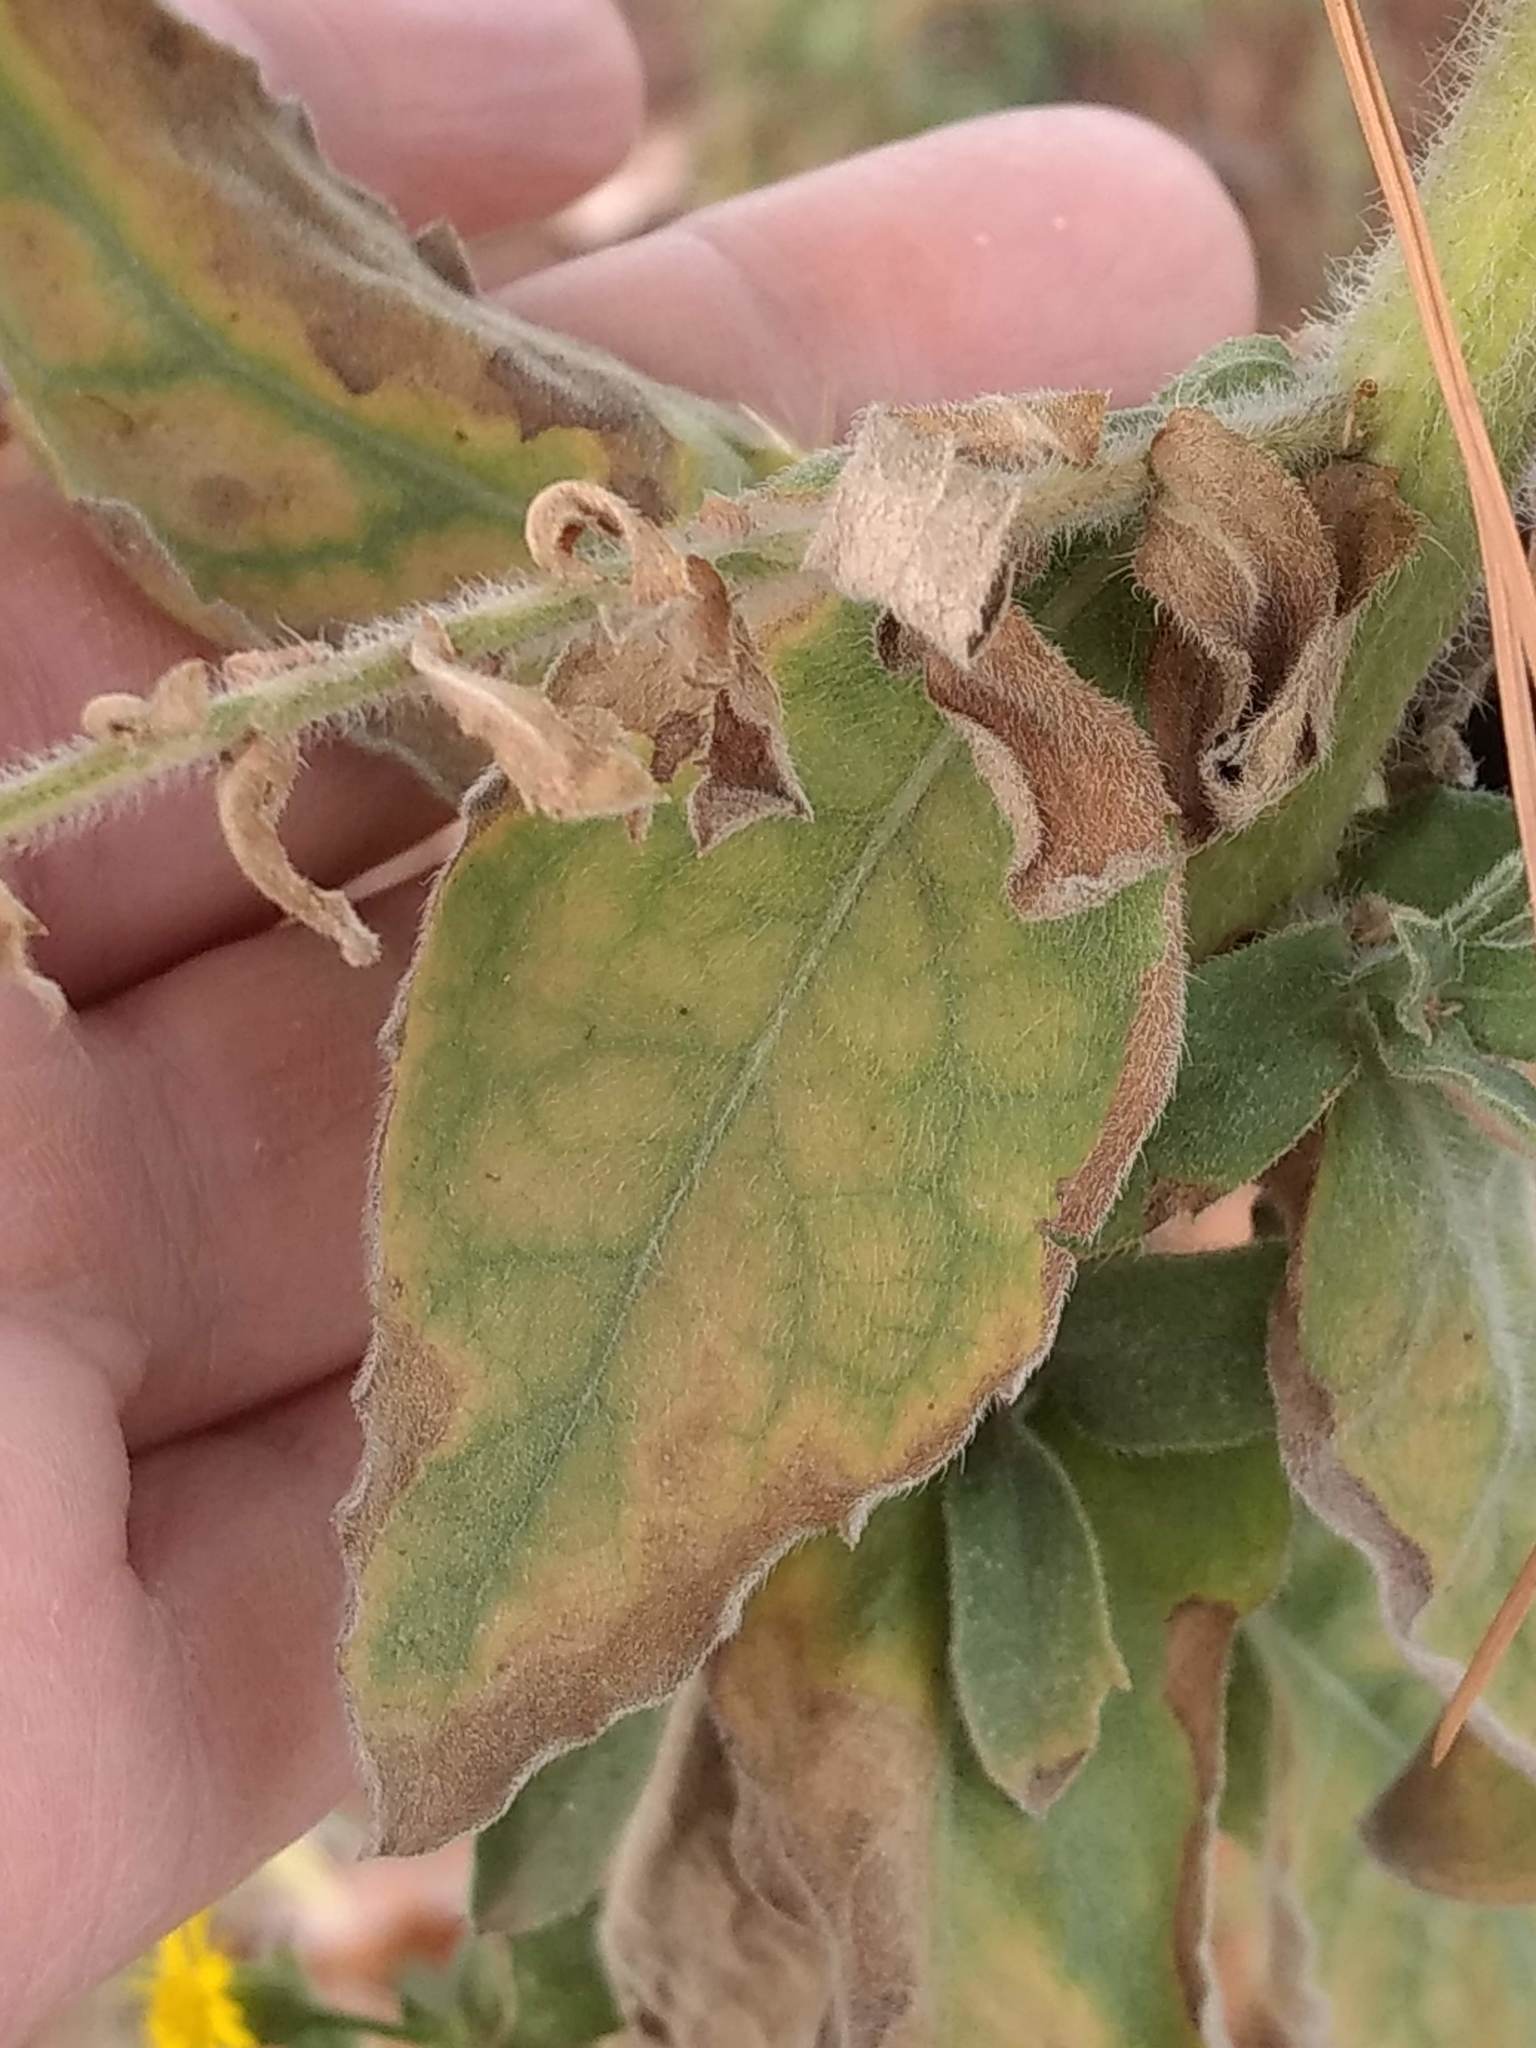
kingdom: Plantae
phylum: Tracheophyta
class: Magnoliopsida
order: Asterales
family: Asteraceae
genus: Heterotheca
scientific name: Heterotheca grandiflora
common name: Telegraphweed
